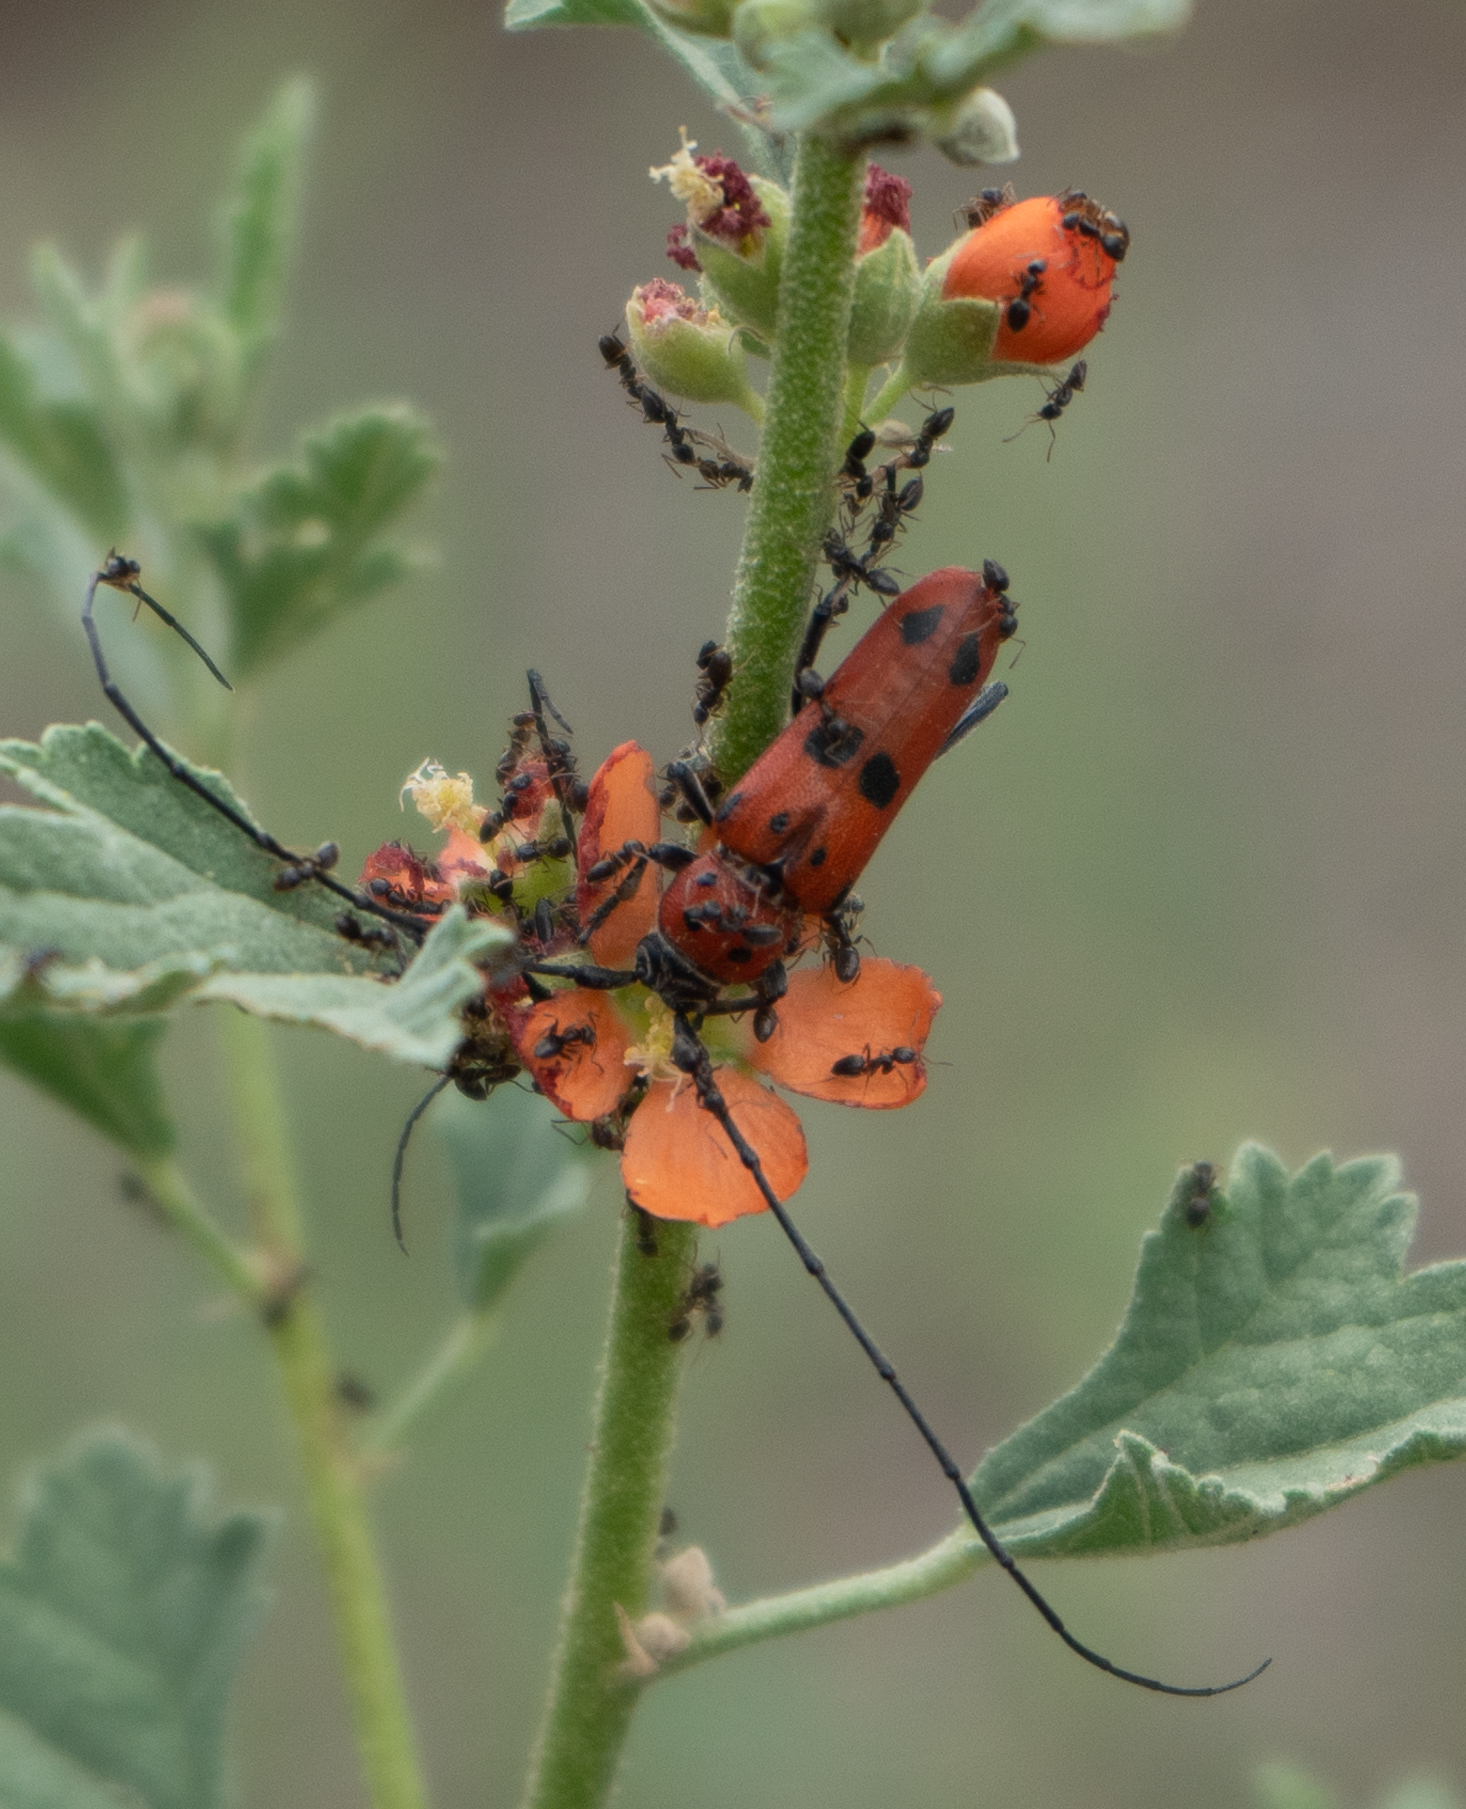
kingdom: Animalia
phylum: Arthropoda
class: Insecta
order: Coleoptera
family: Cerambycidae
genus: Tylosis
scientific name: Tylosis maculatus
